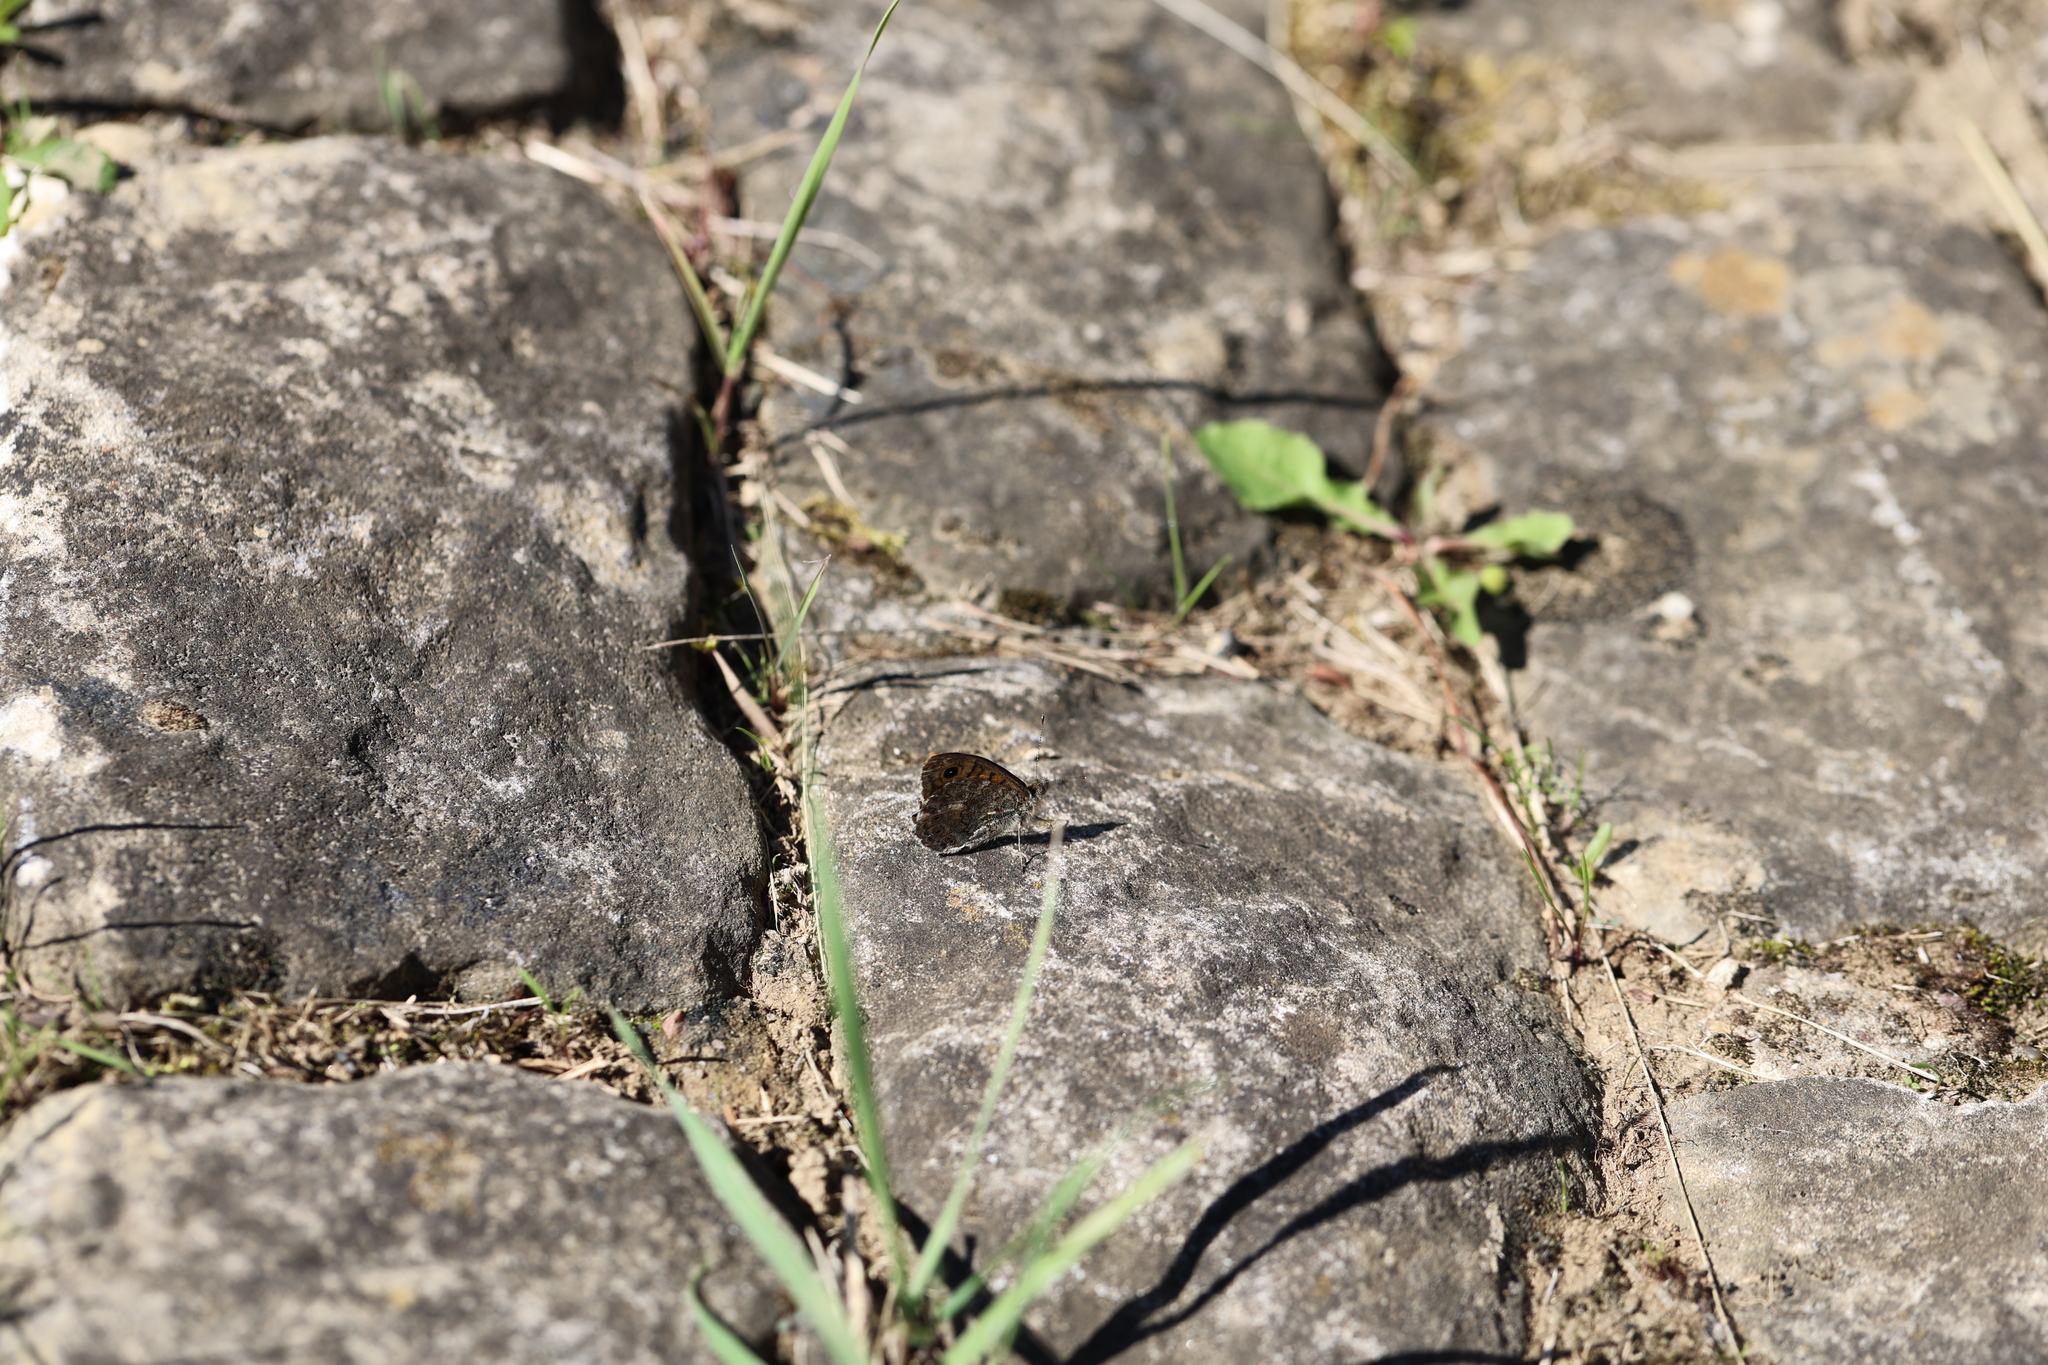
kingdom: Animalia
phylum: Arthropoda
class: Insecta
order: Lepidoptera
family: Nymphalidae
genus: Pararge
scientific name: Pararge Lasiommata megera
